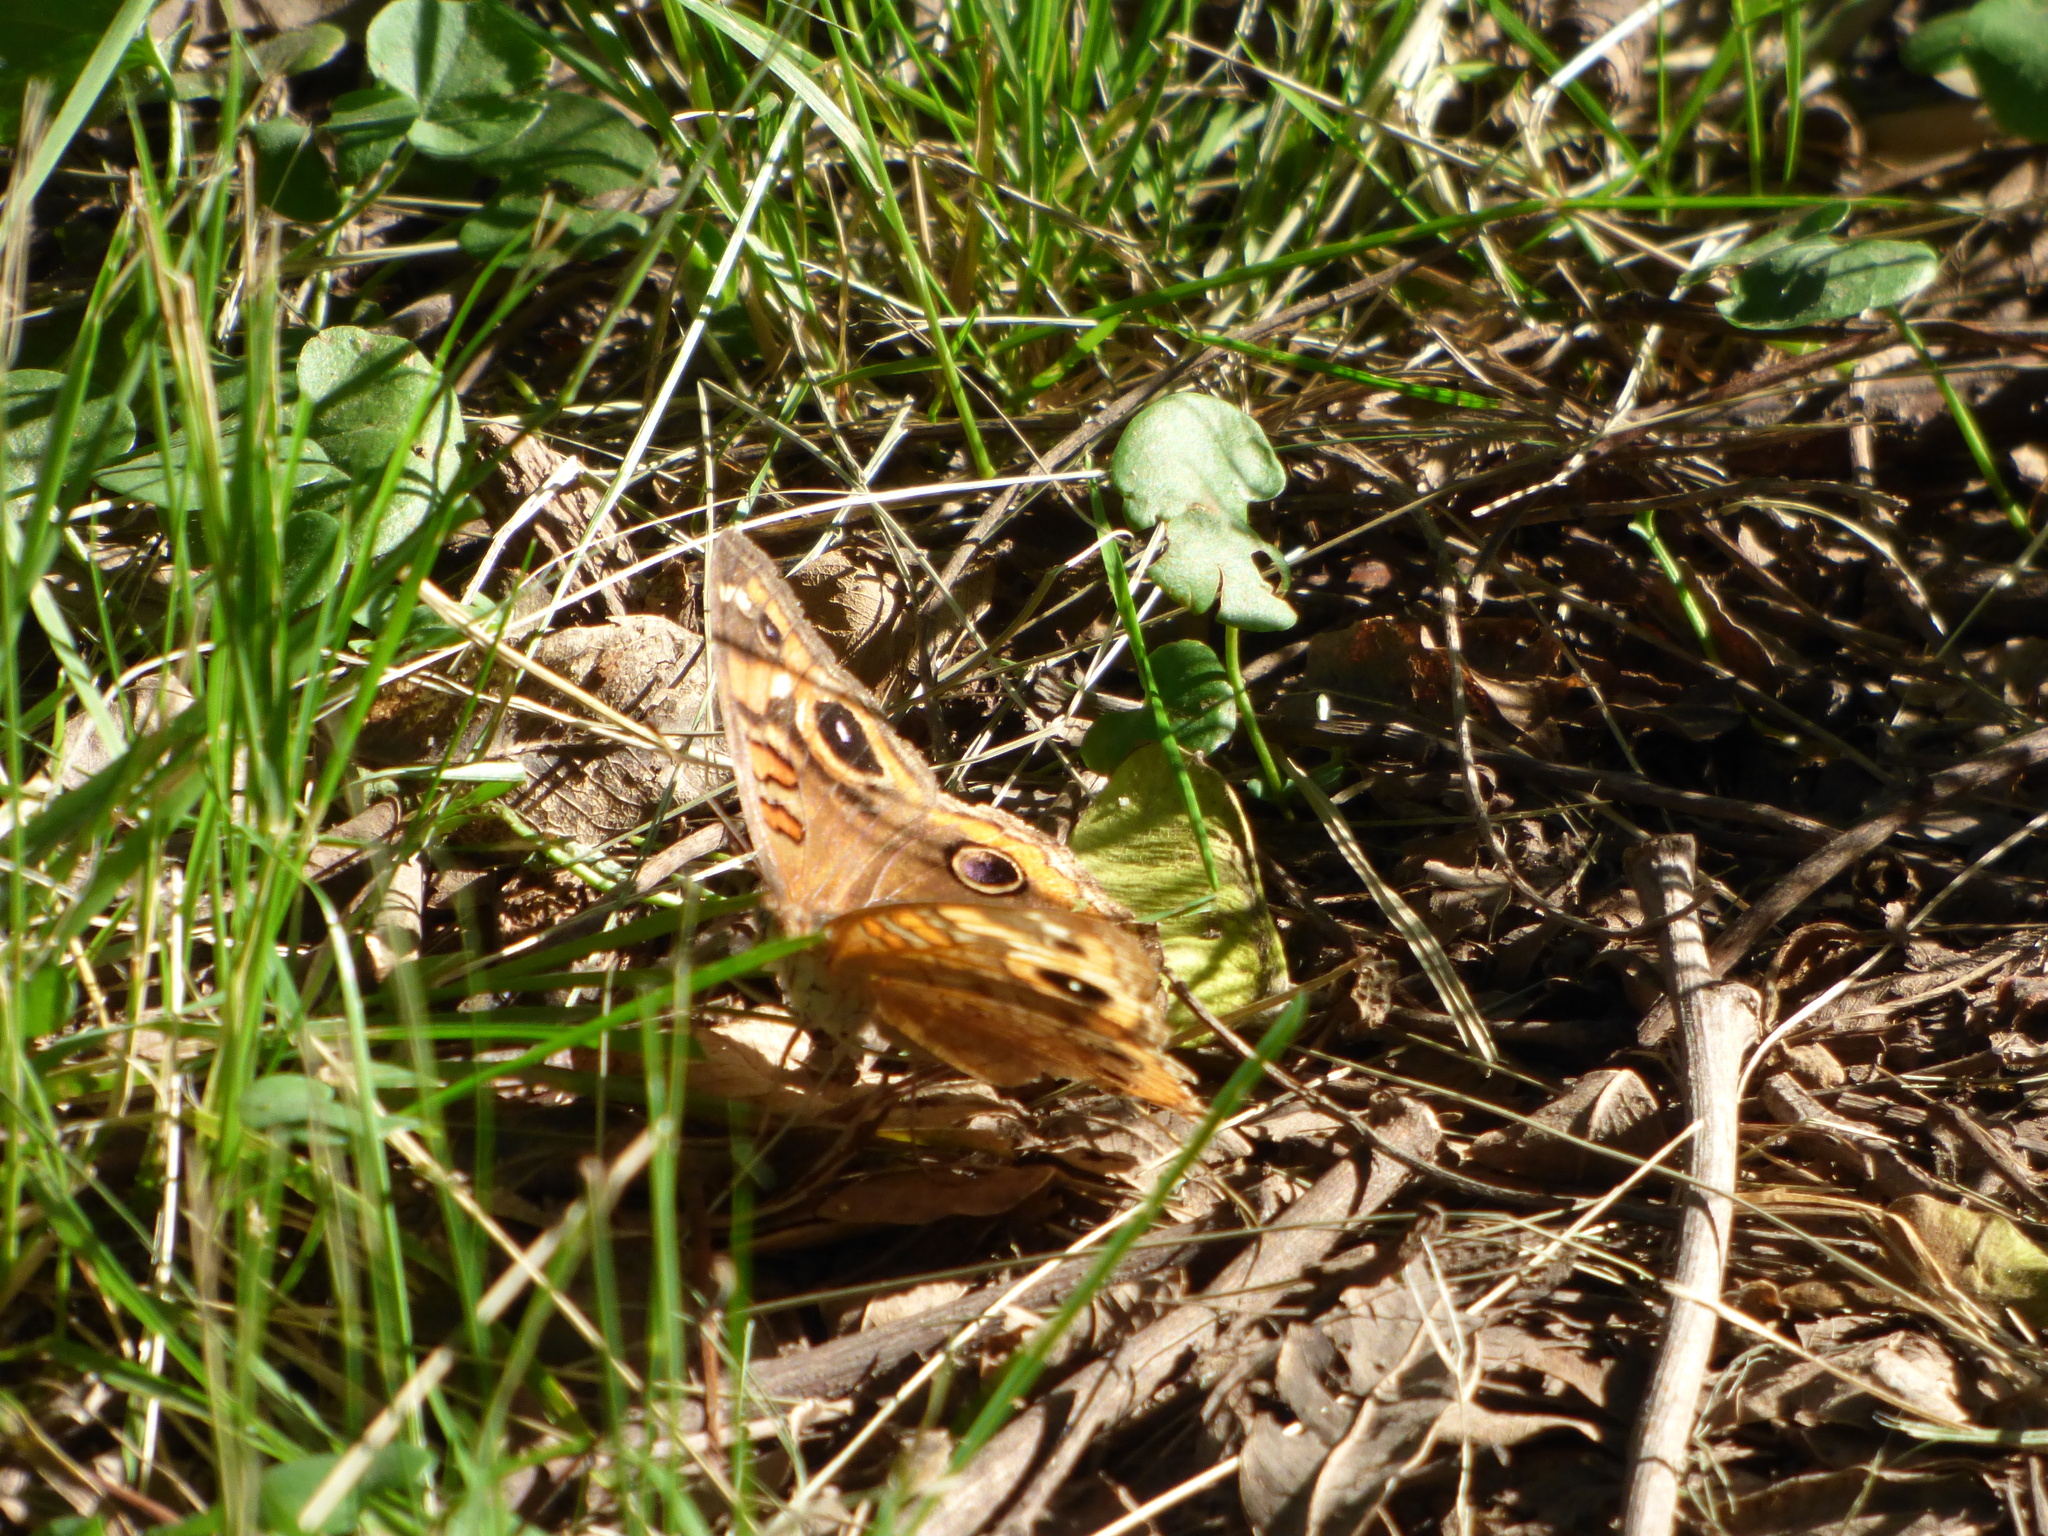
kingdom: Animalia
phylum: Arthropoda
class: Insecta
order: Lepidoptera
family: Nymphalidae
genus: Junonia
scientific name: Junonia lavinia
